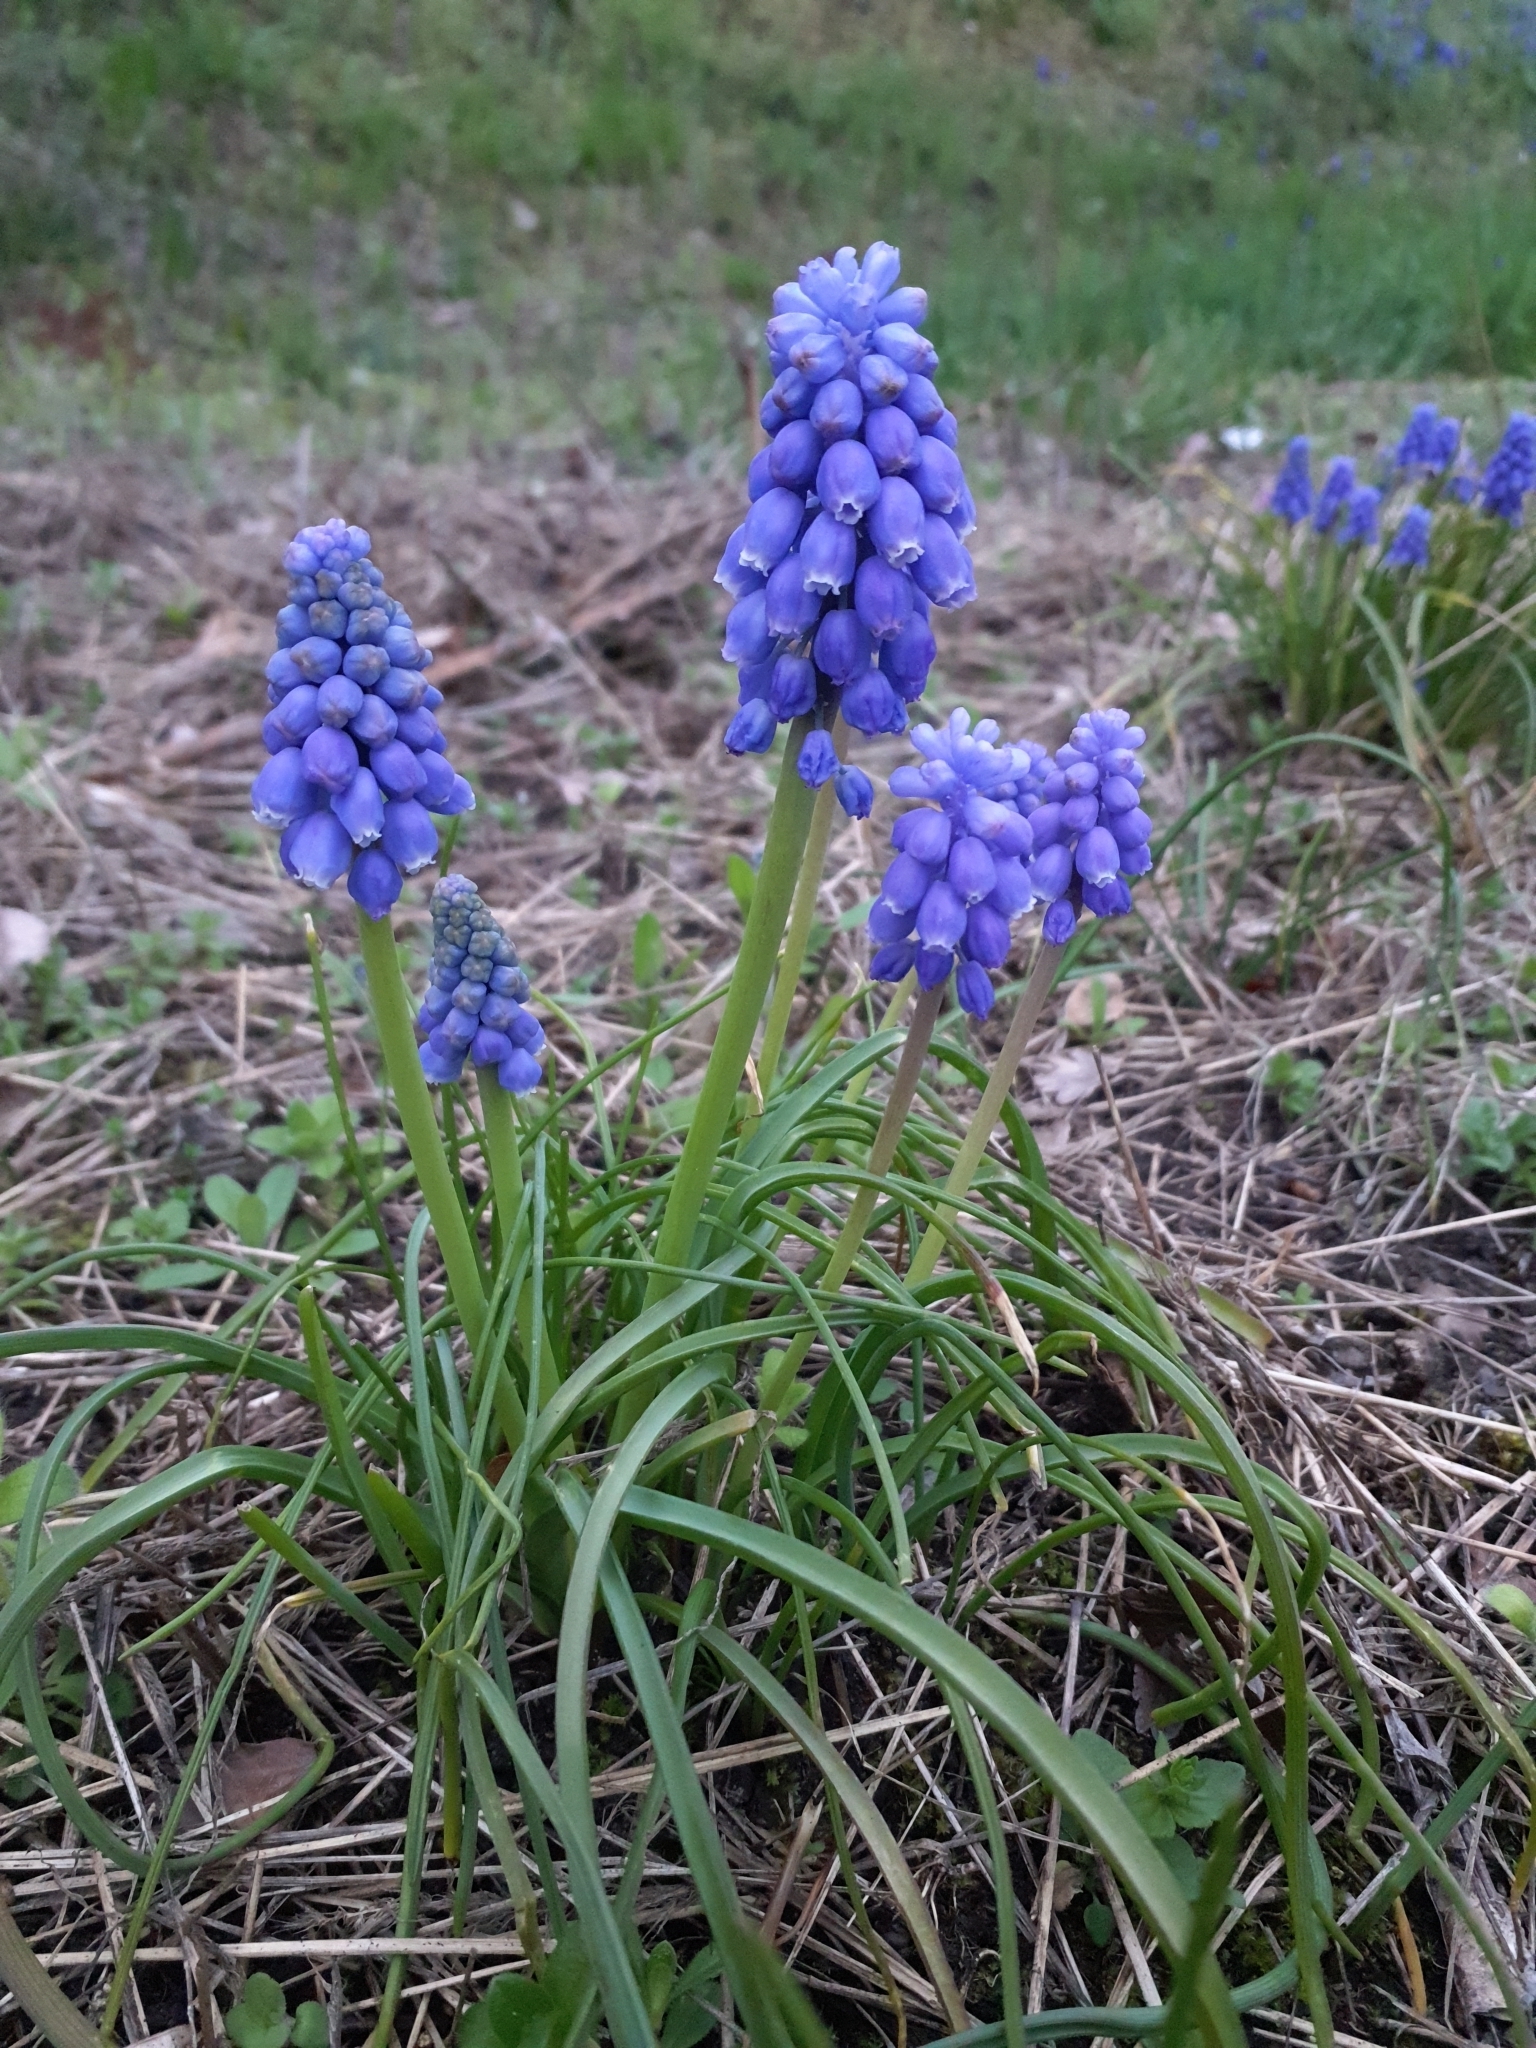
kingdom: Plantae
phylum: Tracheophyta
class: Liliopsida
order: Asparagales
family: Asparagaceae
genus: Muscari
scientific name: Muscari armeniacum
